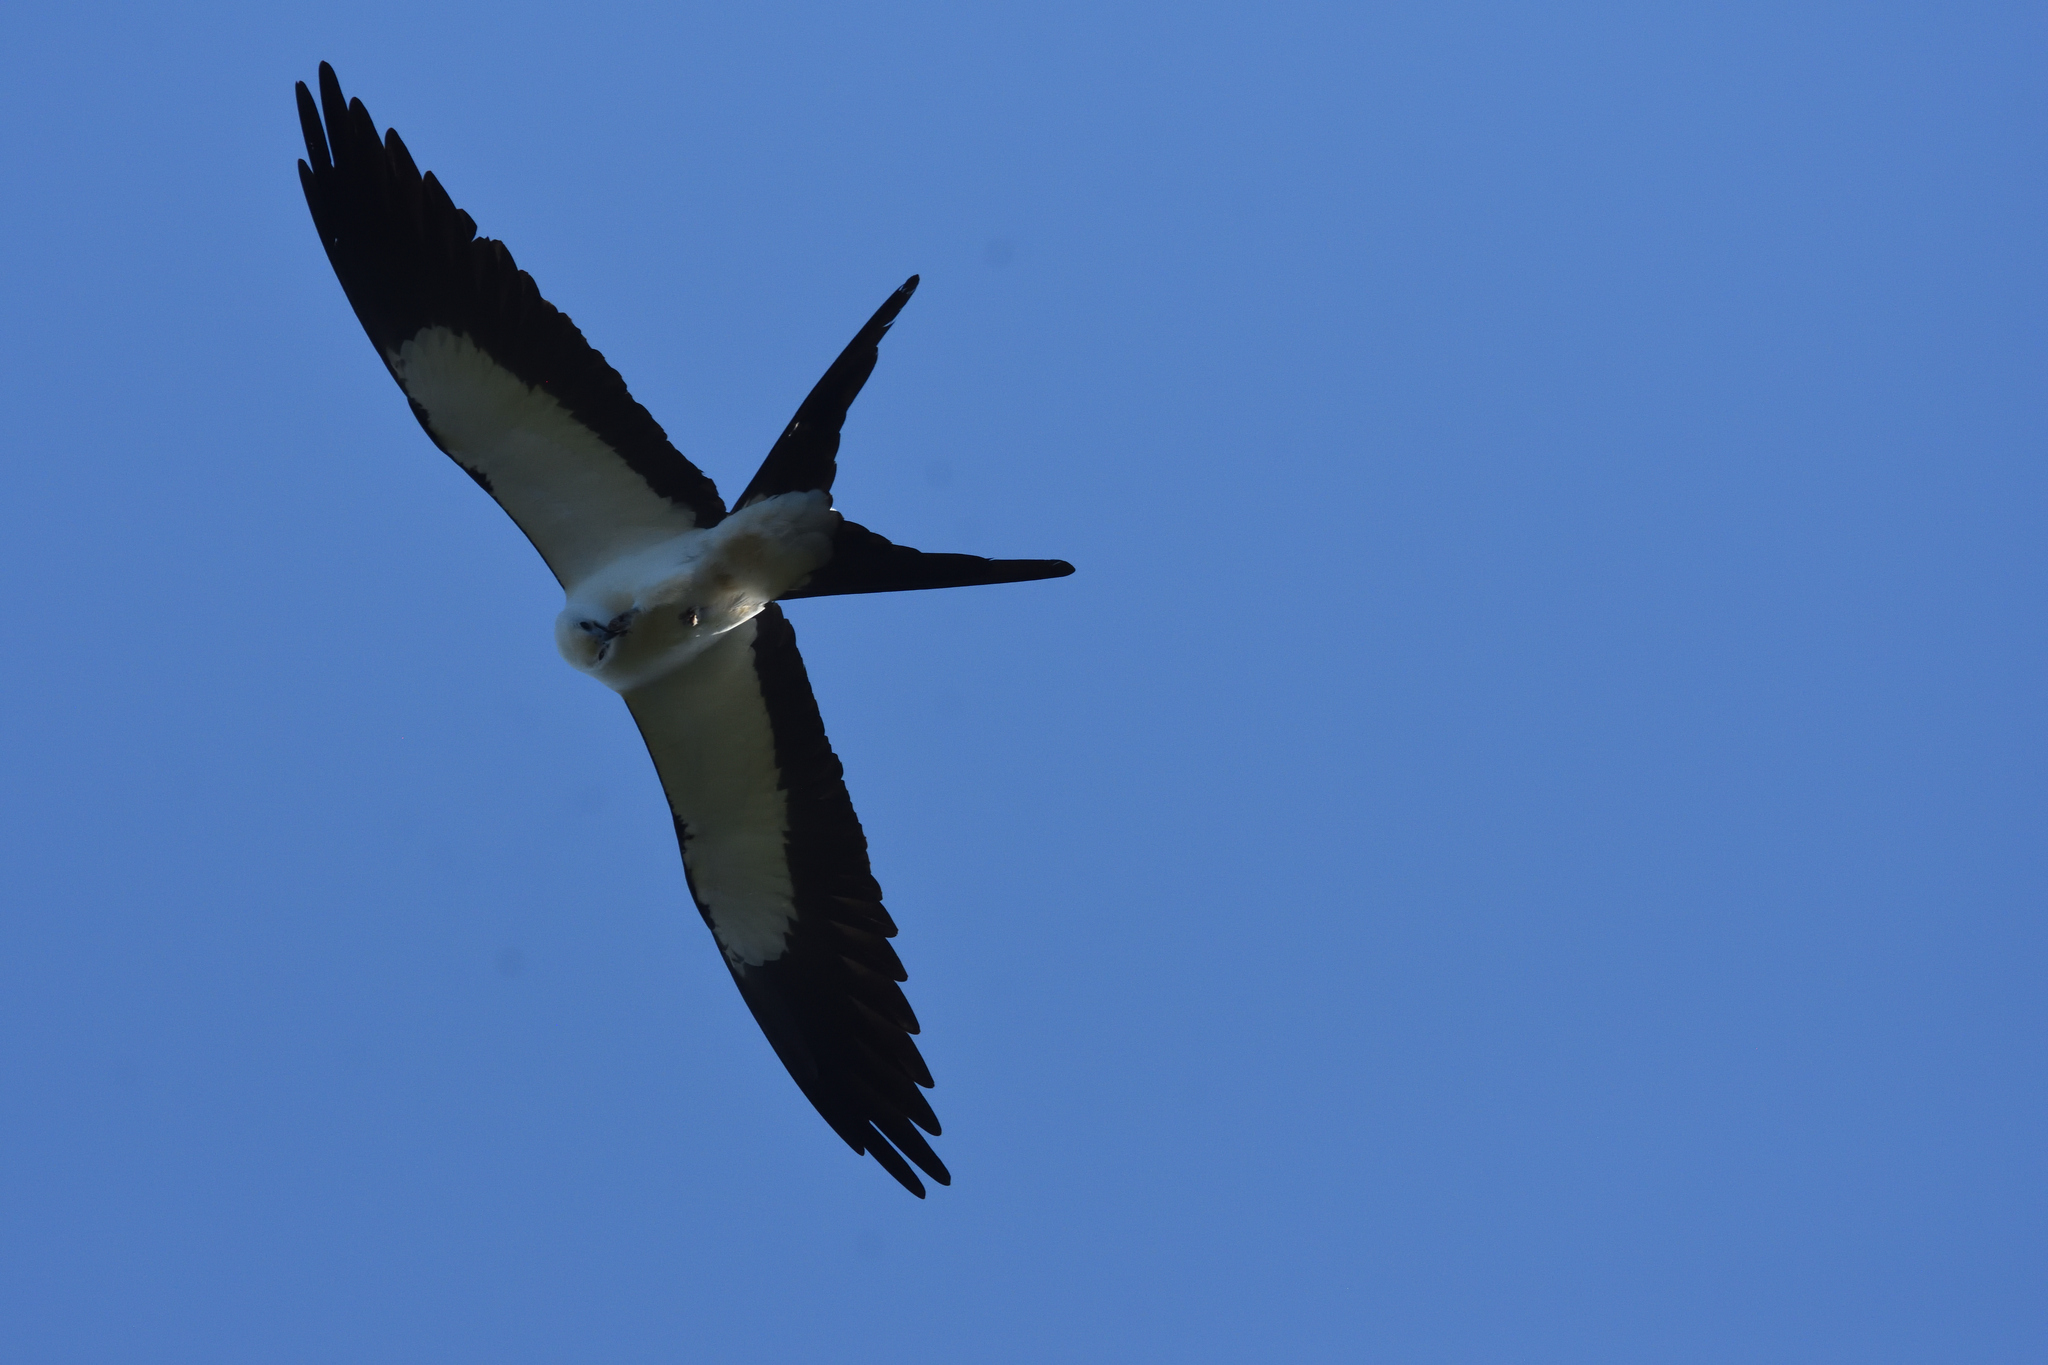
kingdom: Animalia
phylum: Chordata
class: Aves
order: Accipitriformes
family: Accipitridae
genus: Elanoides
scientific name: Elanoides forficatus
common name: Swallow-tailed kite
